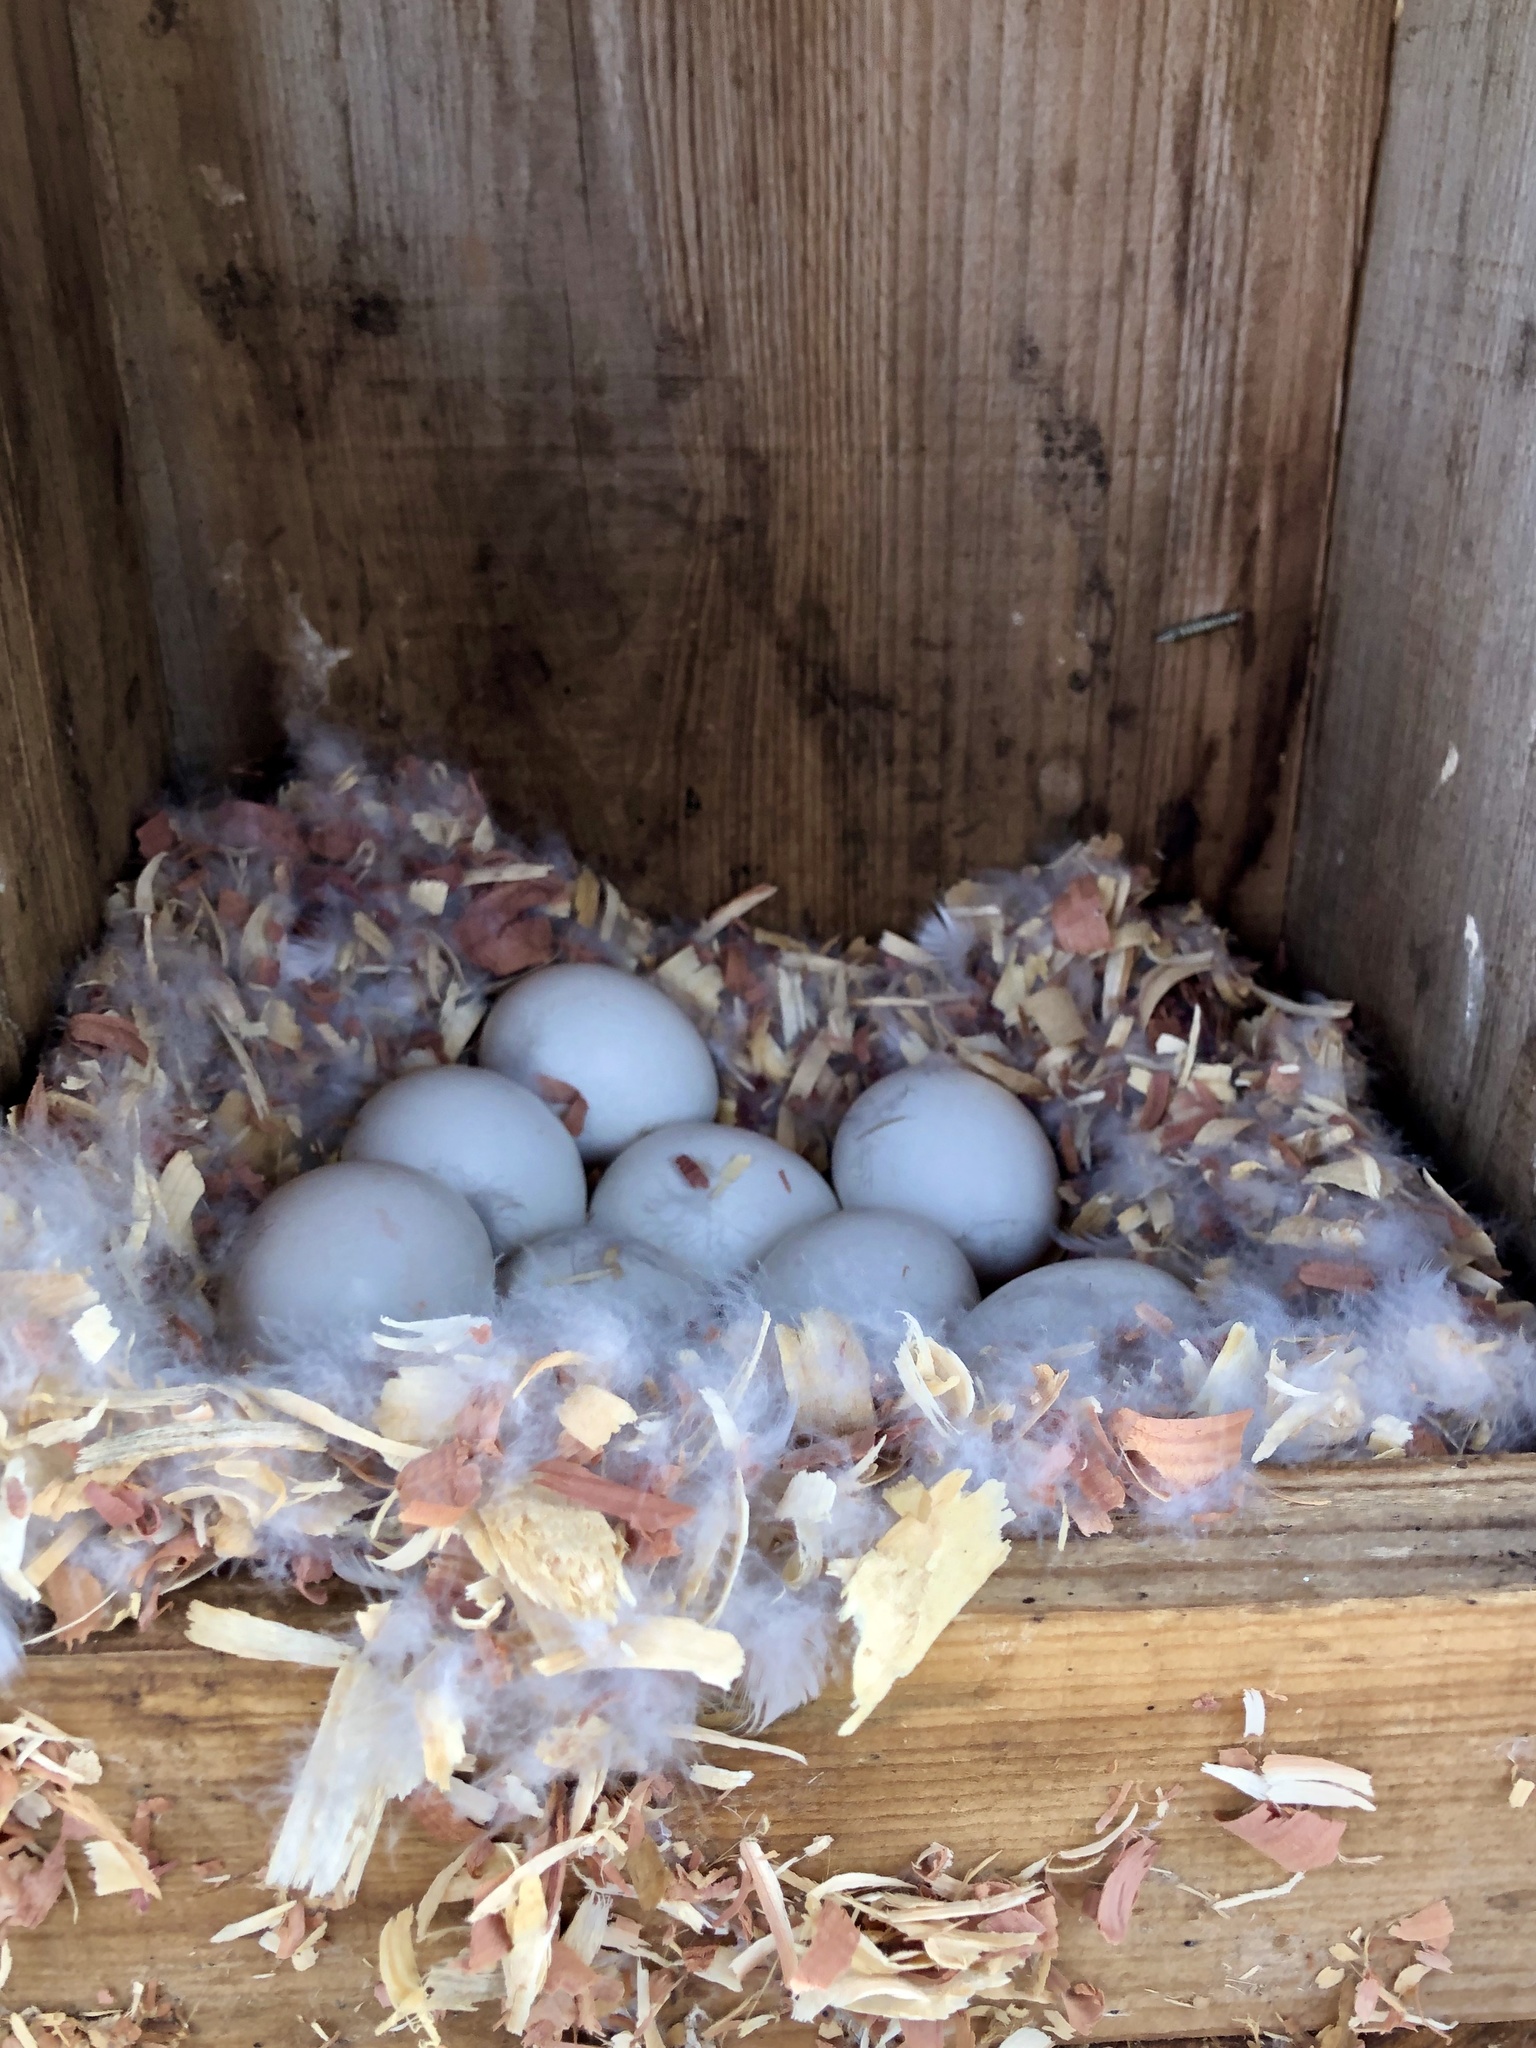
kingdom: Animalia
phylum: Chordata
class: Aves
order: Anseriformes
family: Anatidae
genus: Aix
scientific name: Aix sponsa
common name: Wood duck
